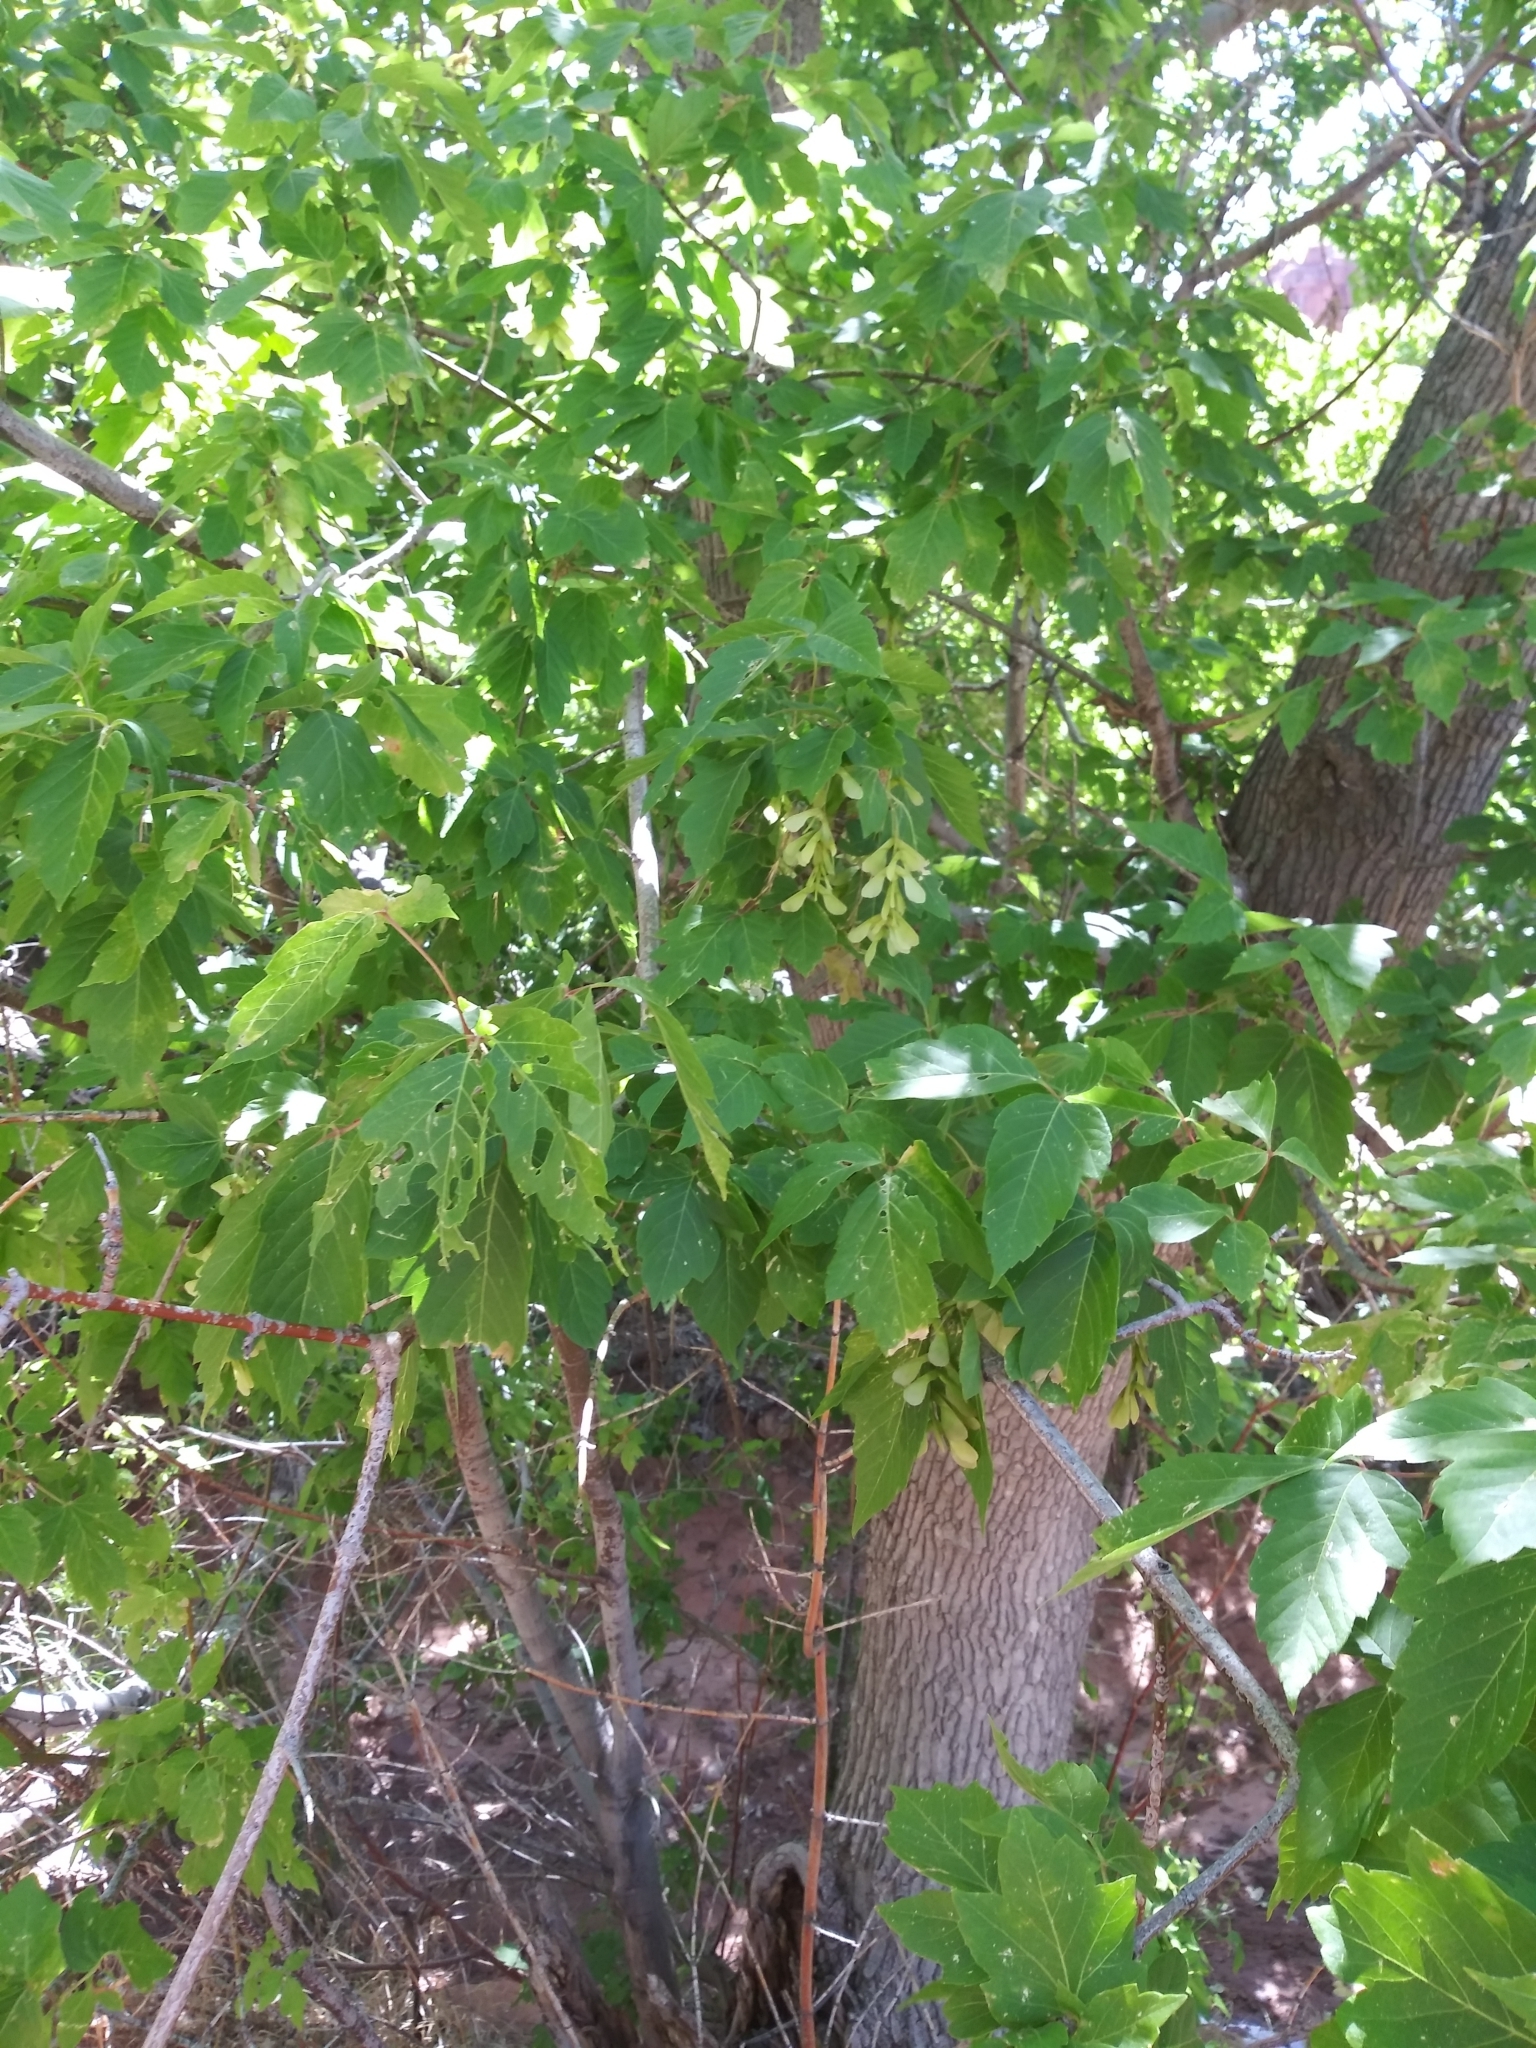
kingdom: Plantae
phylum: Tracheophyta
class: Magnoliopsida
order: Sapindales
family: Sapindaceae
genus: Acer
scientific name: Acer negundo
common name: Ashleaf maple
